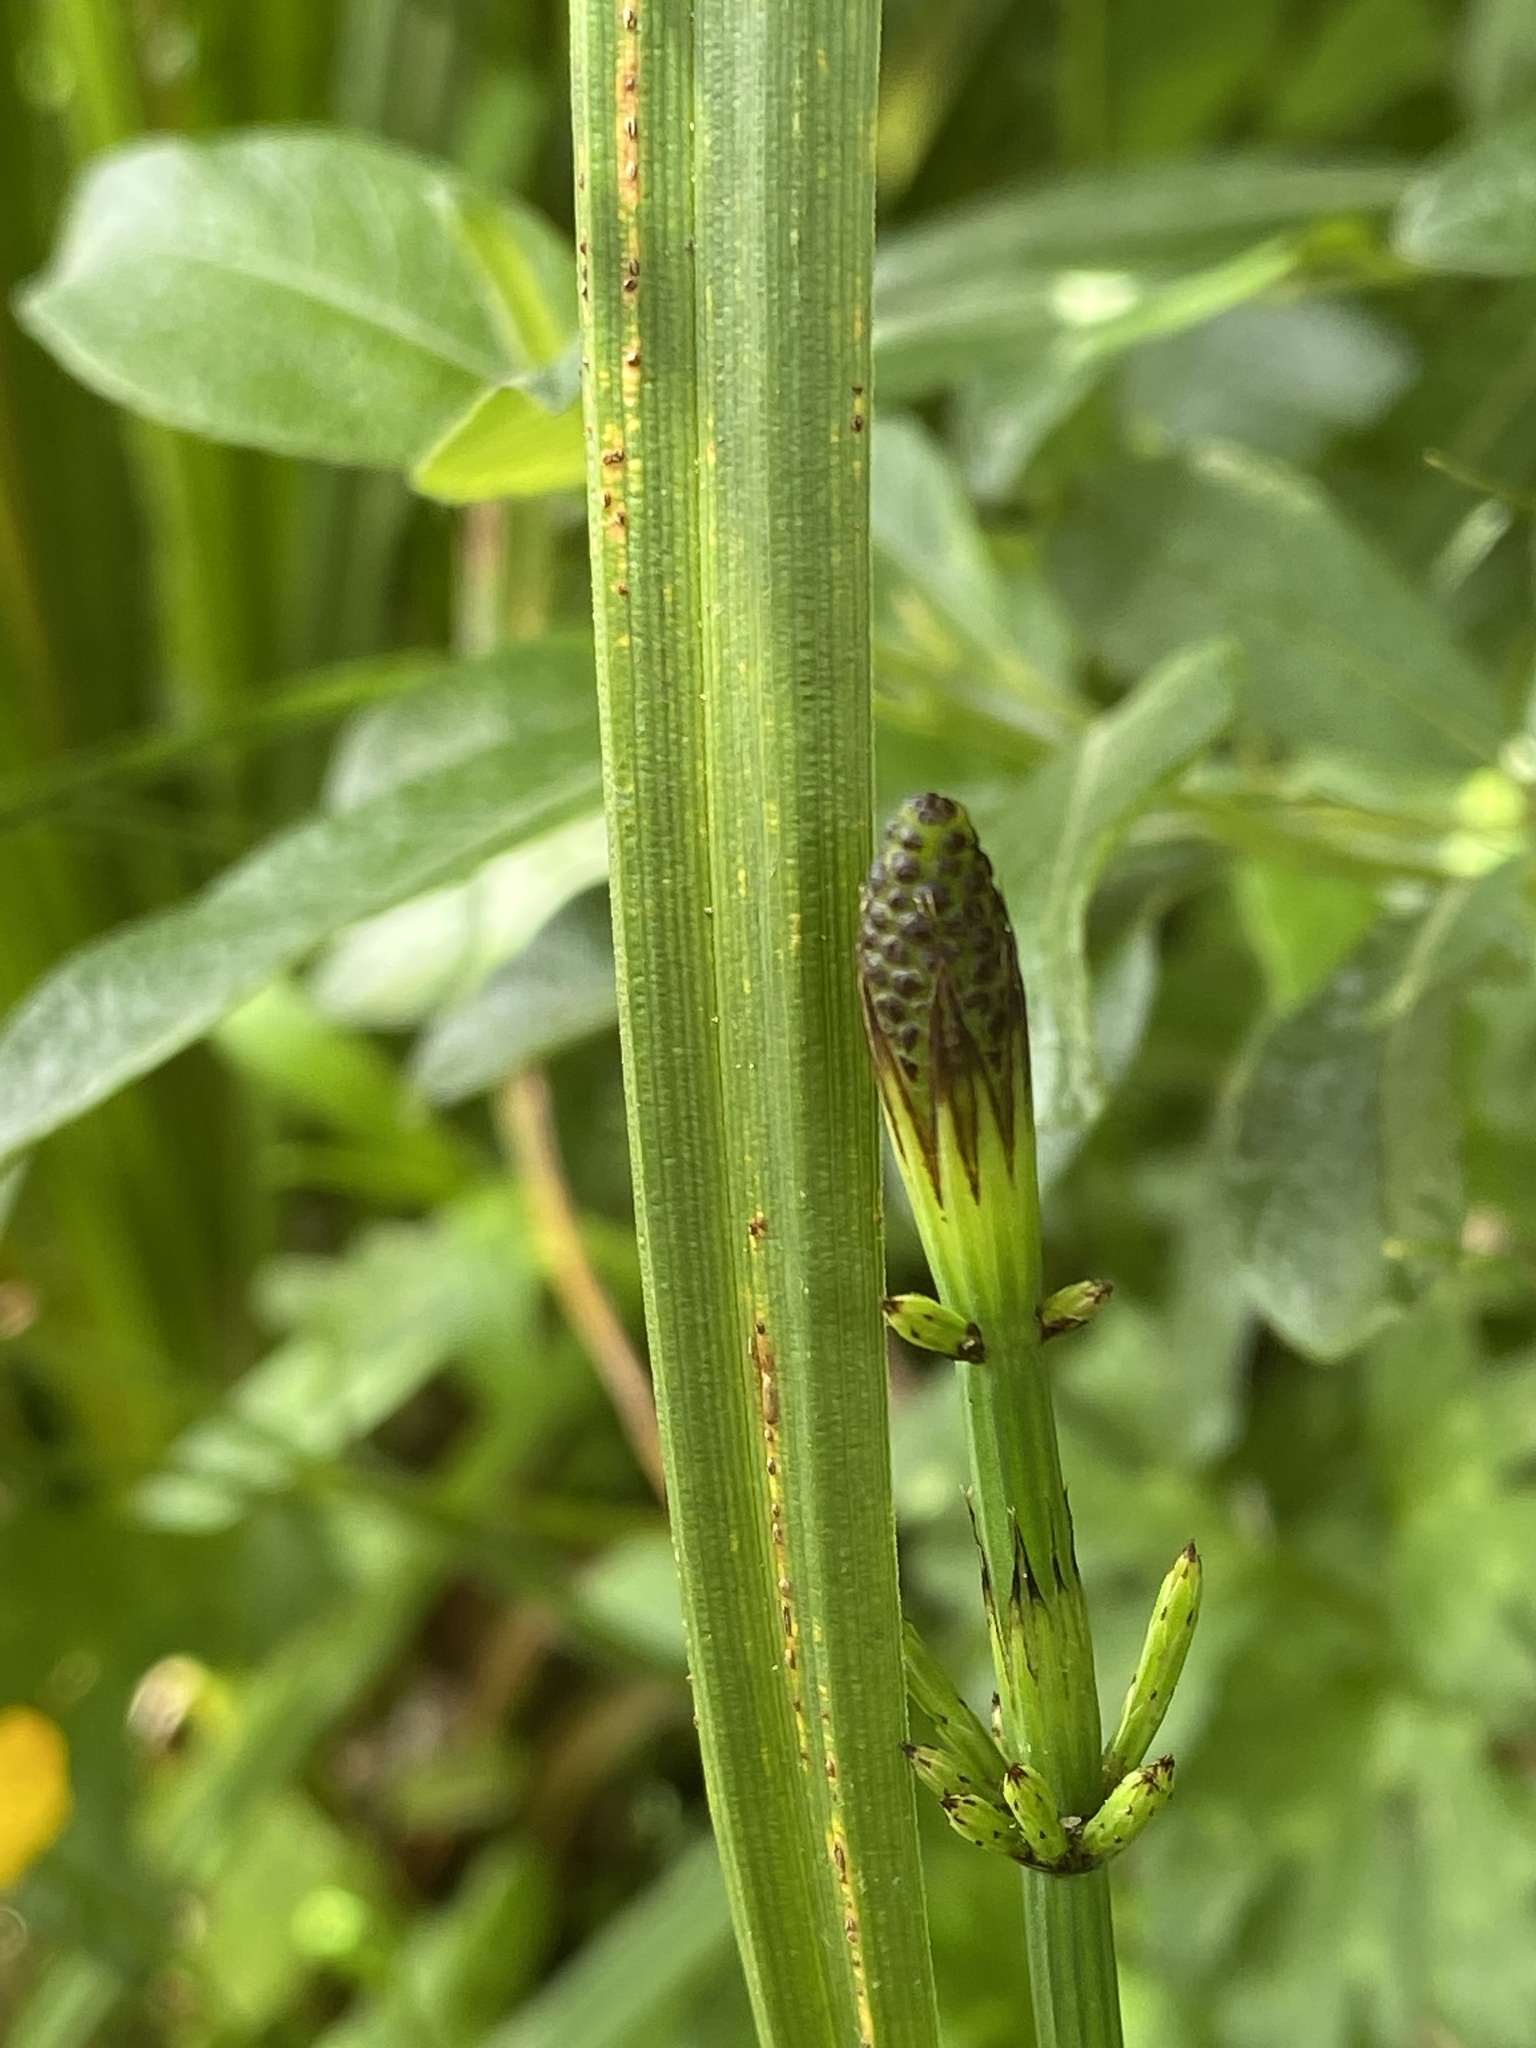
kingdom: Plantae
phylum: Tracheophyta
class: Polypodiopsida
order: Equisetales
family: Equisetaceae
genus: Equisetum
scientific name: Equisetum palustre
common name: Marsh horsetail
